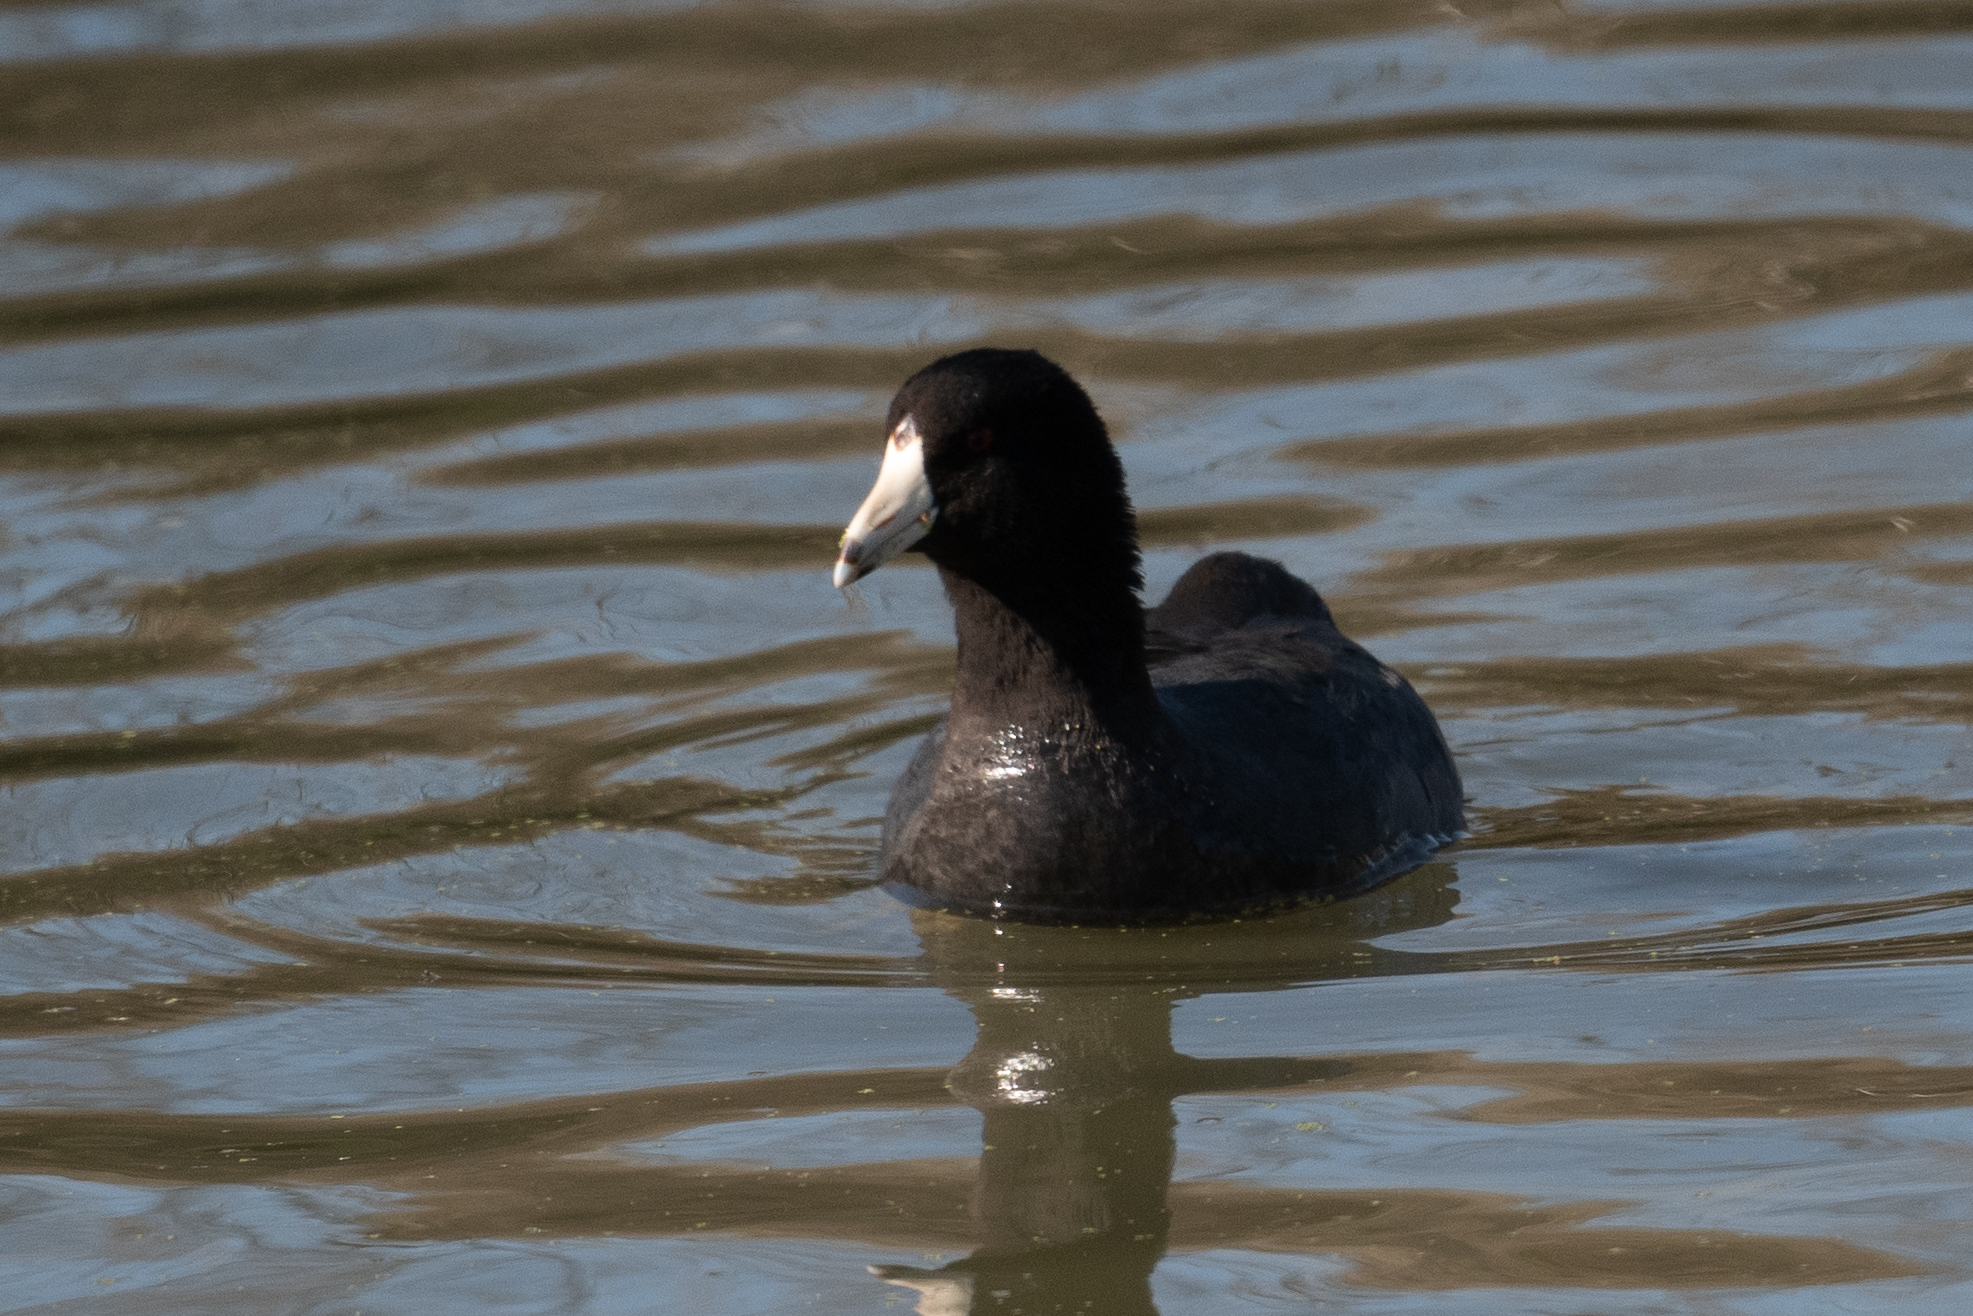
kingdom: Animalia
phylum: Chordata
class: Aves
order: Gruiformes
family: Rallidae
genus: Fulica
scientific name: Fulica americana
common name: American coot
